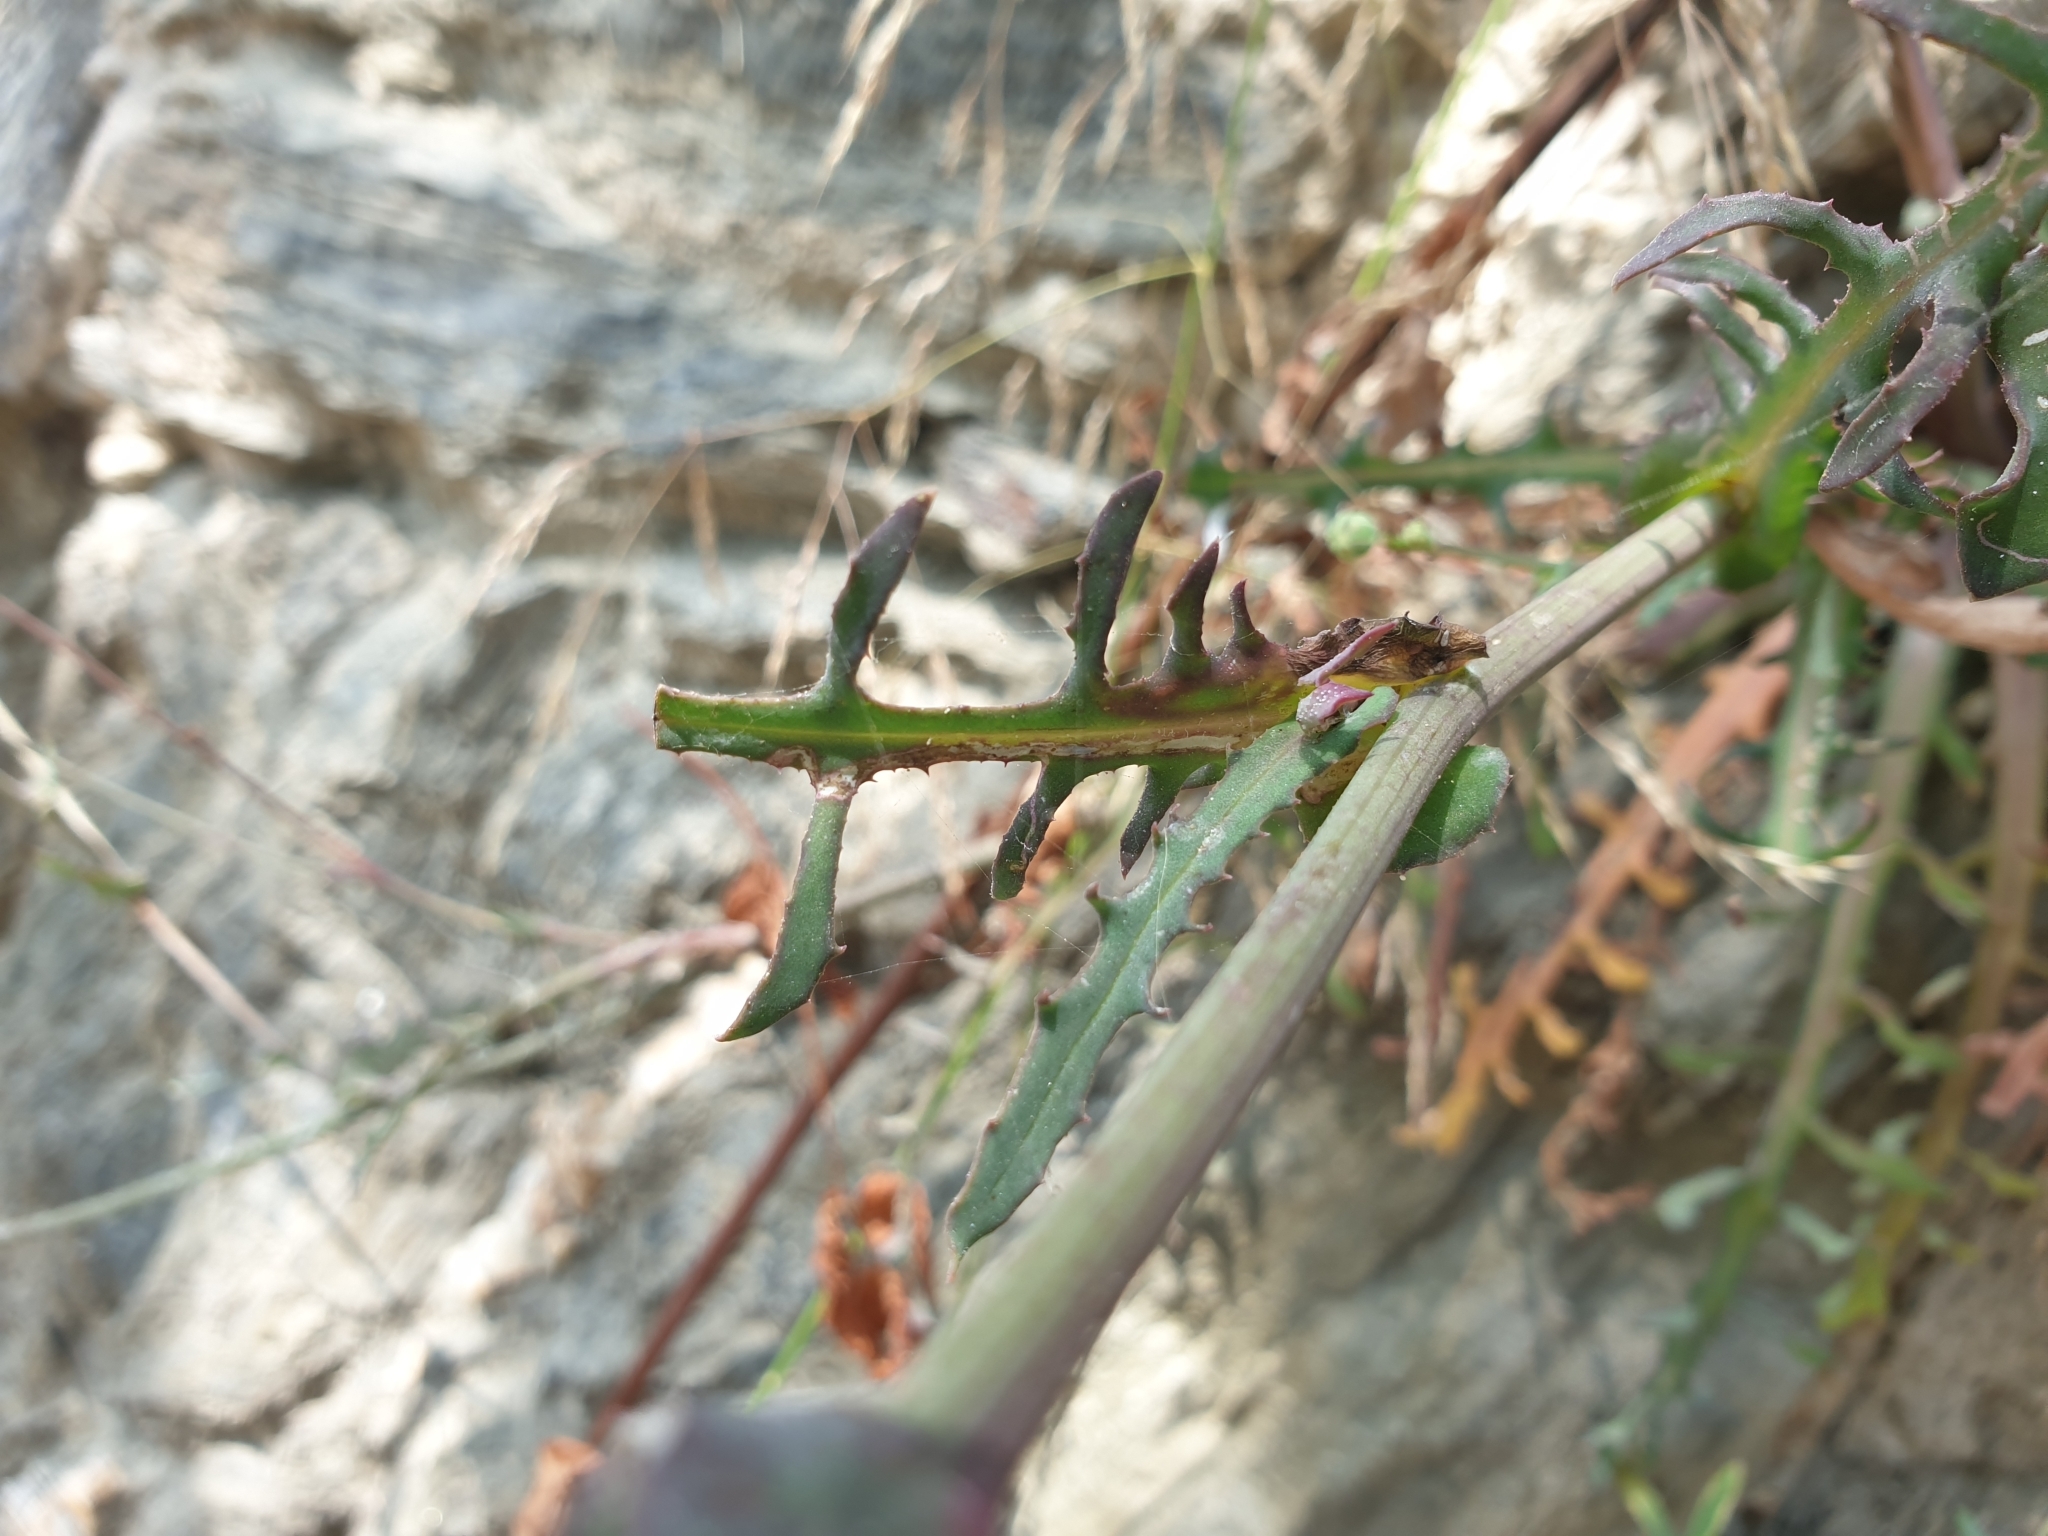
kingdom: Plantae
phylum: Tracheophyta
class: Magnoliopsida
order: Asterales
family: Asteraceae
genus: Reichardia
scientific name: Reichardia picroides
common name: Common brighteyes
